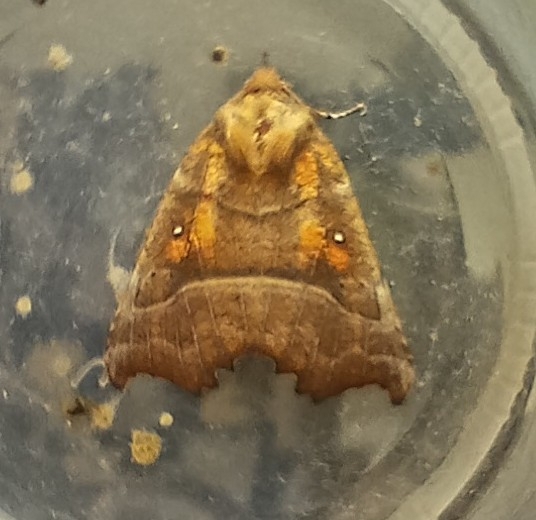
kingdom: Animalia
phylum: Arthropoda
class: Insecta
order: Lepidoptera
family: Erebidae
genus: Scoliopteryx
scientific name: Scoliopteryx libatrix
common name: Herald
